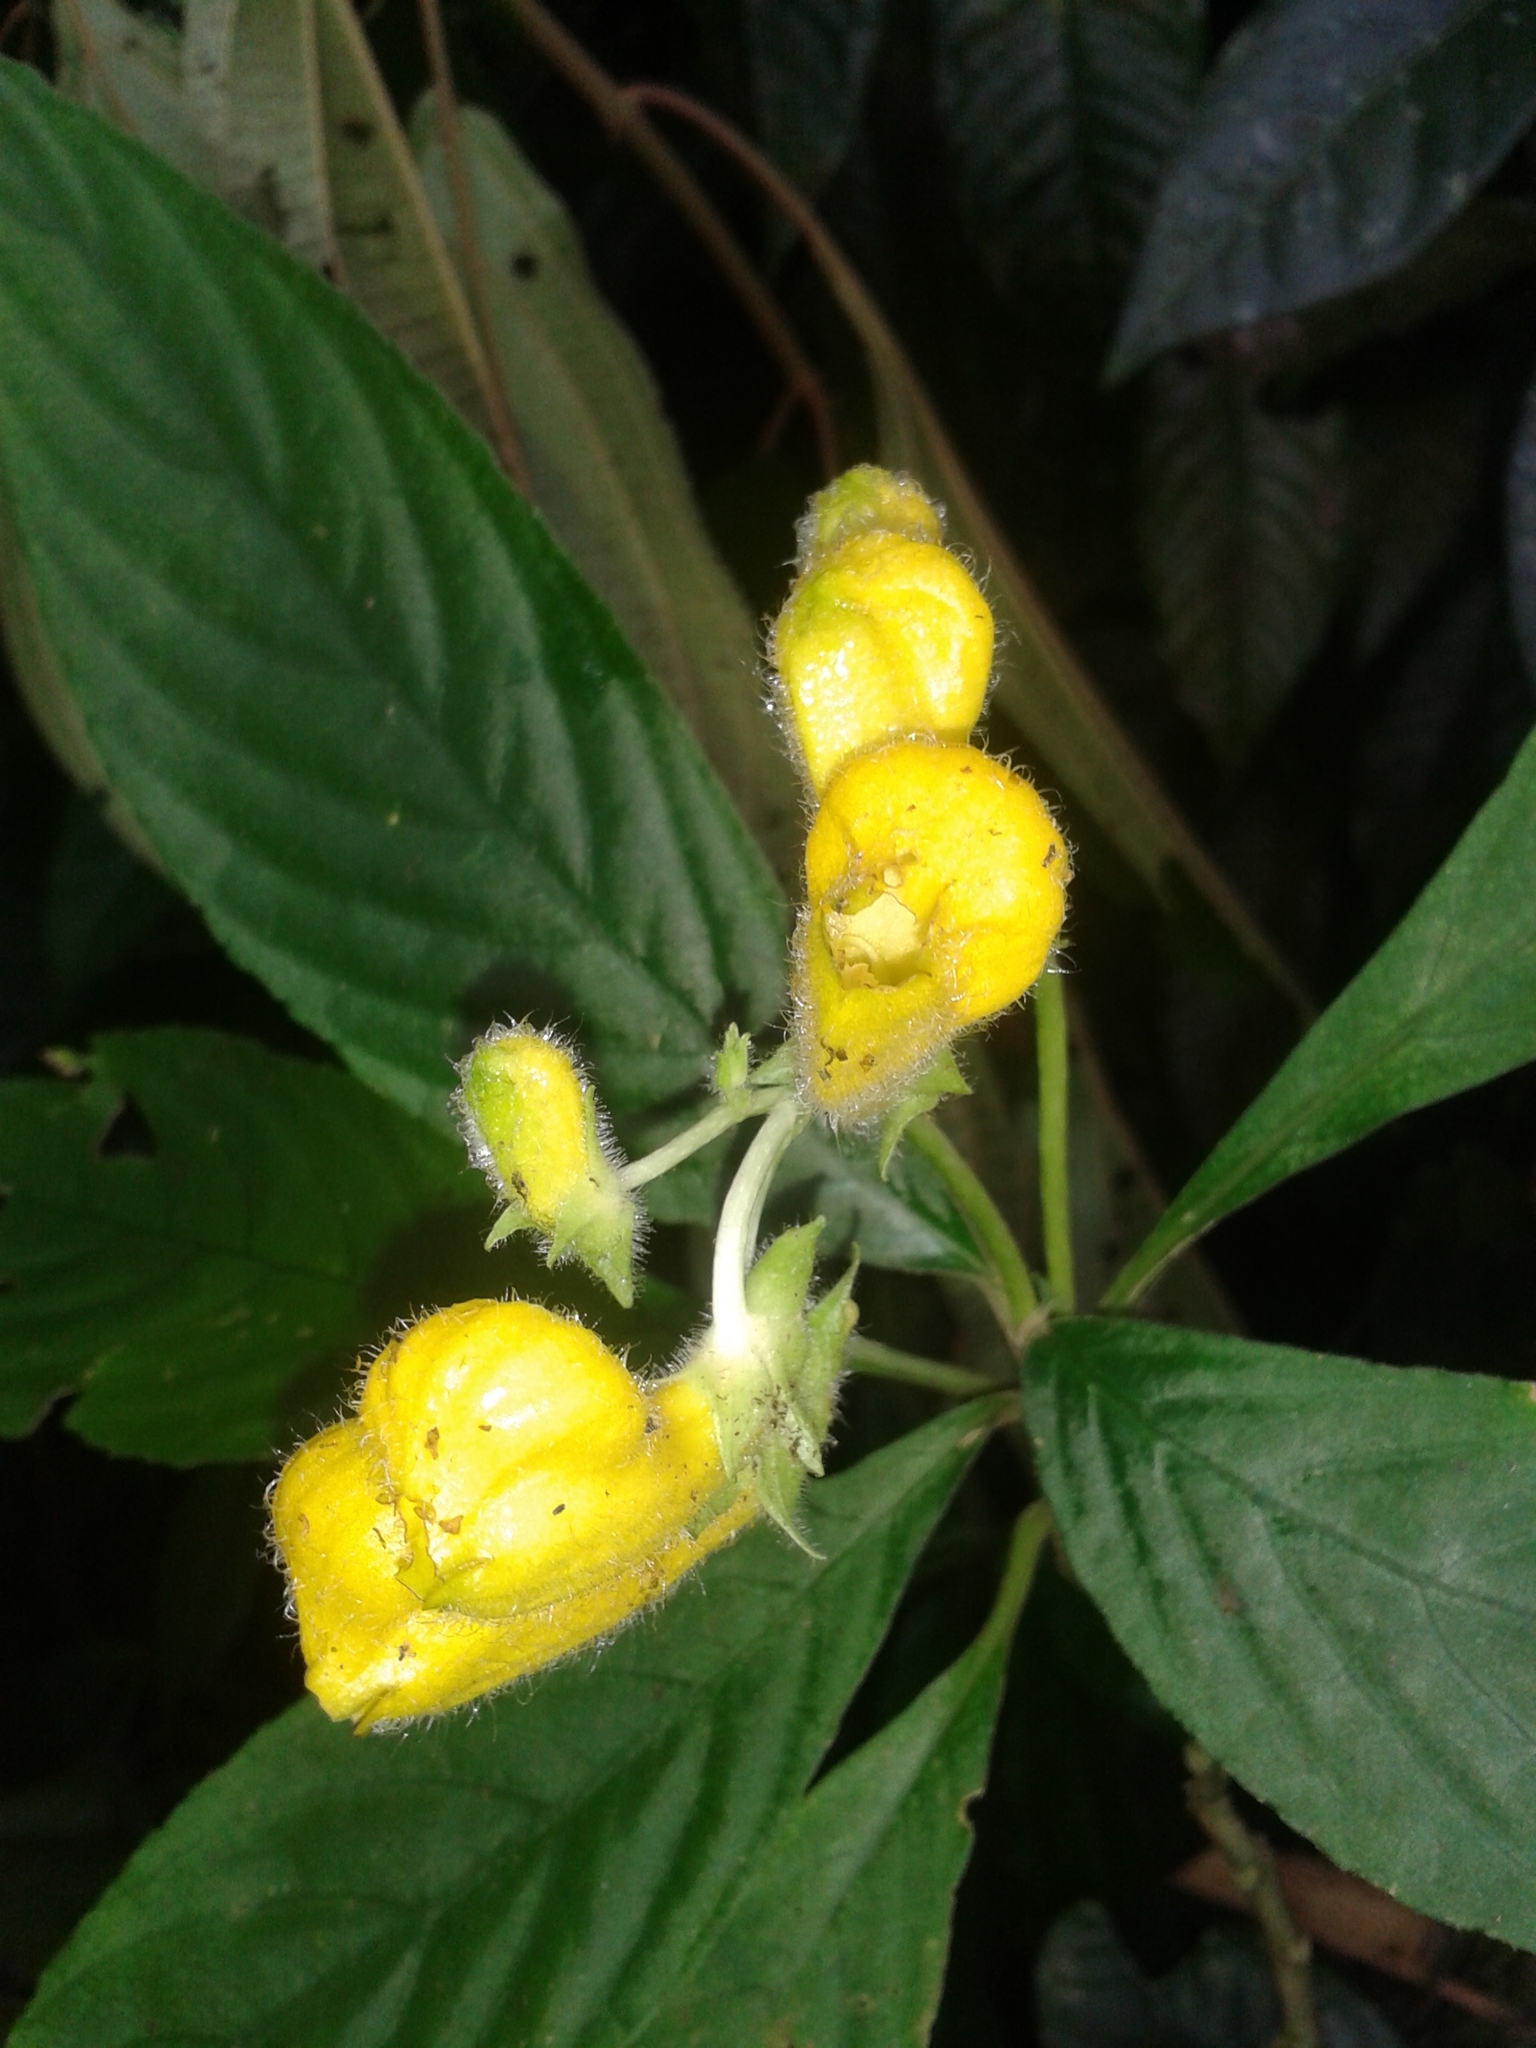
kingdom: Plantae
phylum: Tracheophyta
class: Magnoliopsida
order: Lamiales
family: Gesneriaceae
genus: Gasteranthus
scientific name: Gasteranthus osaensis
